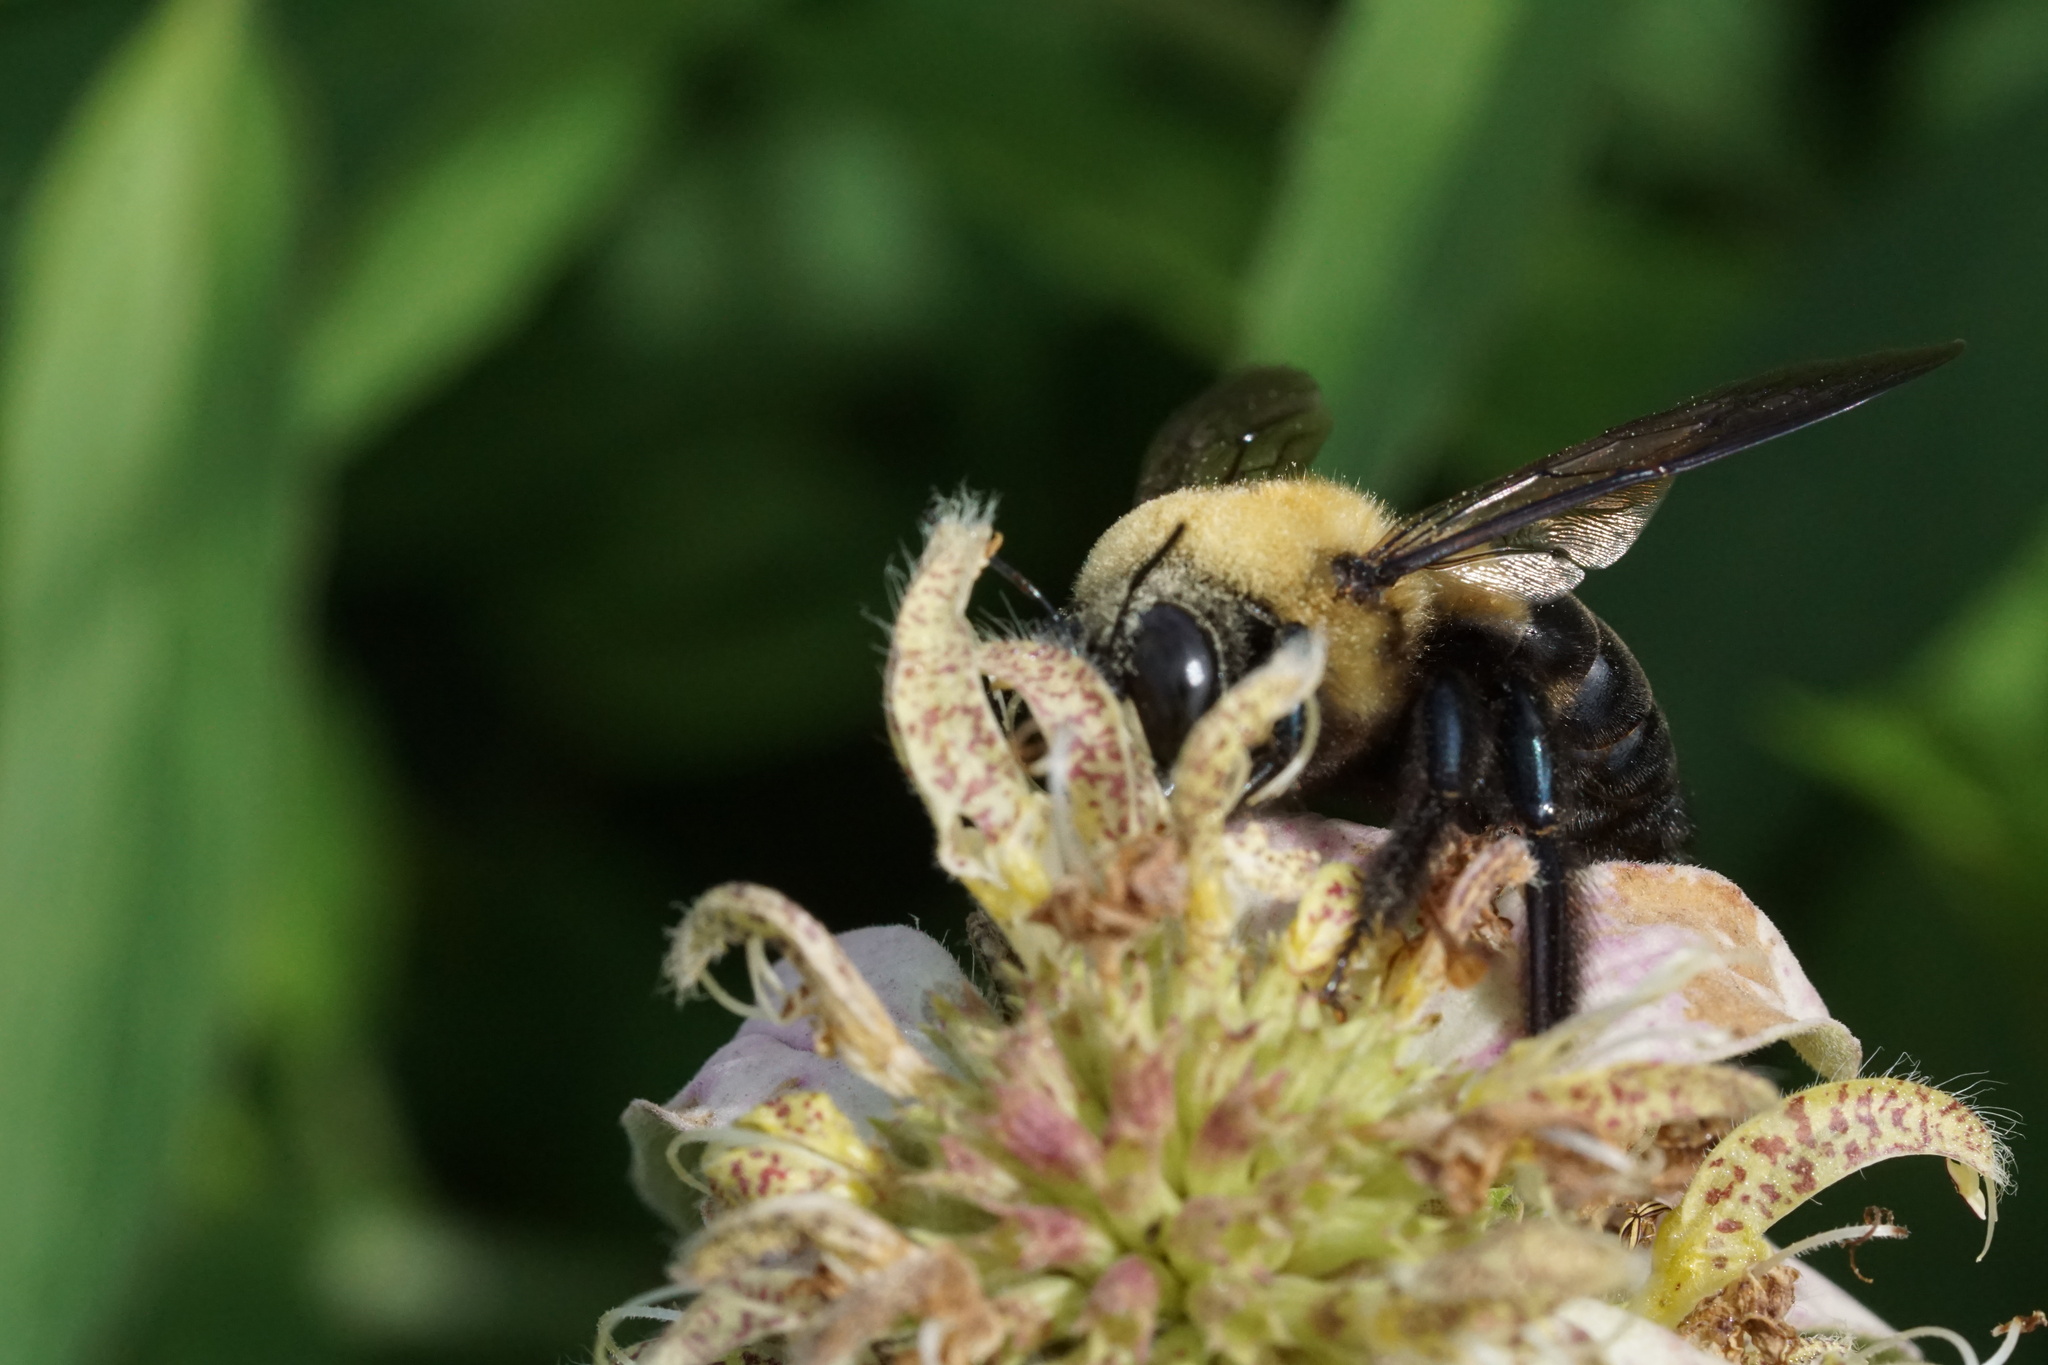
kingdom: Animalia
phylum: Arthropoda
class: Insecta
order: Hymenoptera
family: Apidae
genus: Xylocopa
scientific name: Xylocopa virginica
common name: Carpenter bee
